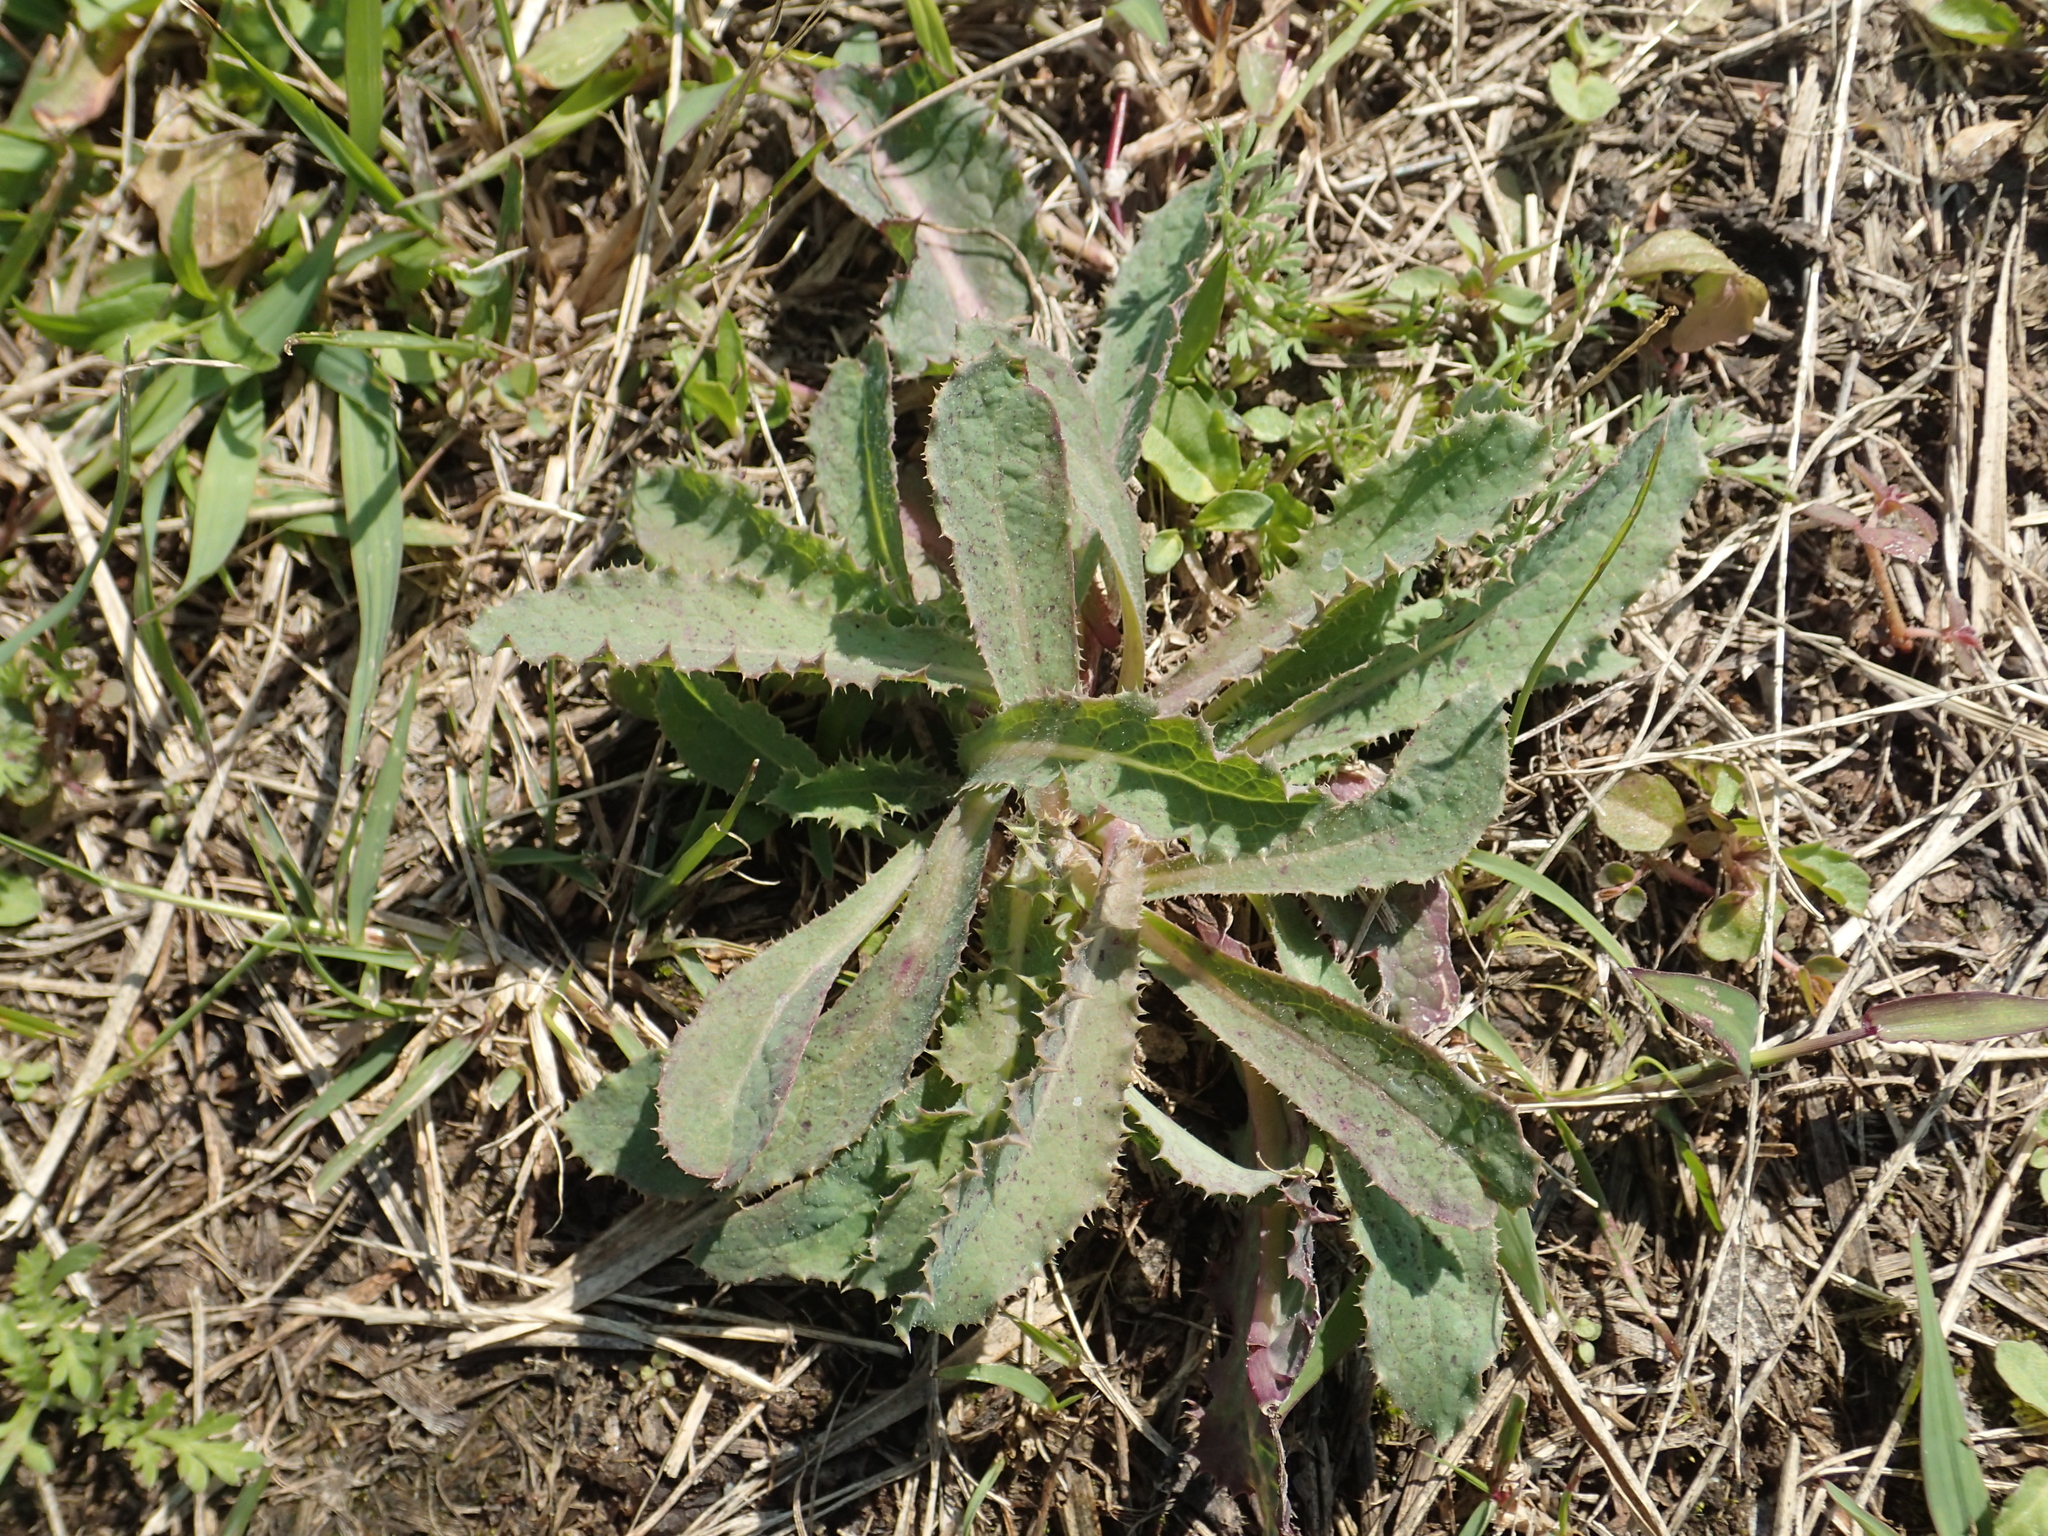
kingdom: Plantae
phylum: Tracheophyta
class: Magnoliopsida
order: Asterales
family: Asteraceae
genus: Sonchus
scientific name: Sonchus asper
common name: Prickly sow-thistle
